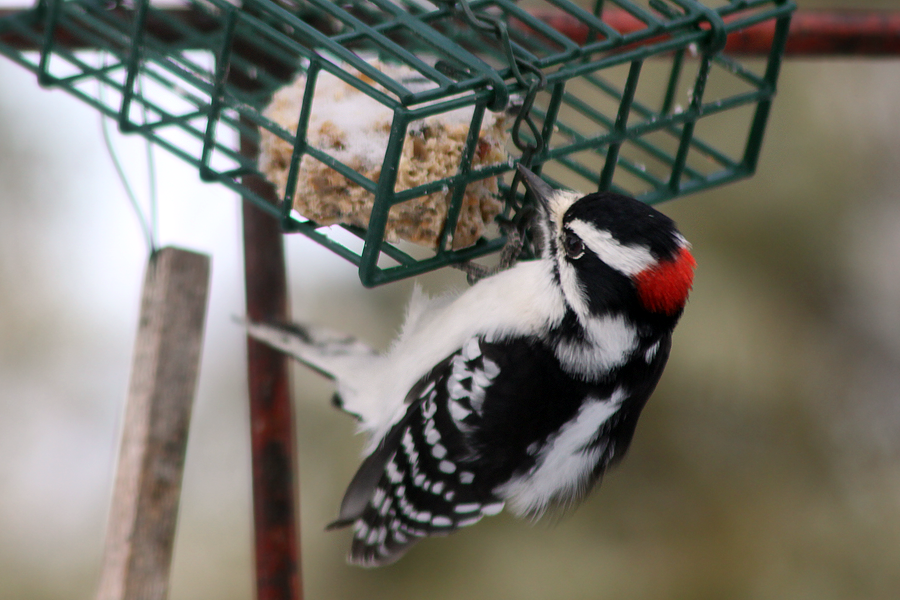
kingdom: Animalia
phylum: Chordata
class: Aves
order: Piciformes
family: Picidae
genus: Dryobates
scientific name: Dryobates pubescens
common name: Downy woodpecker
